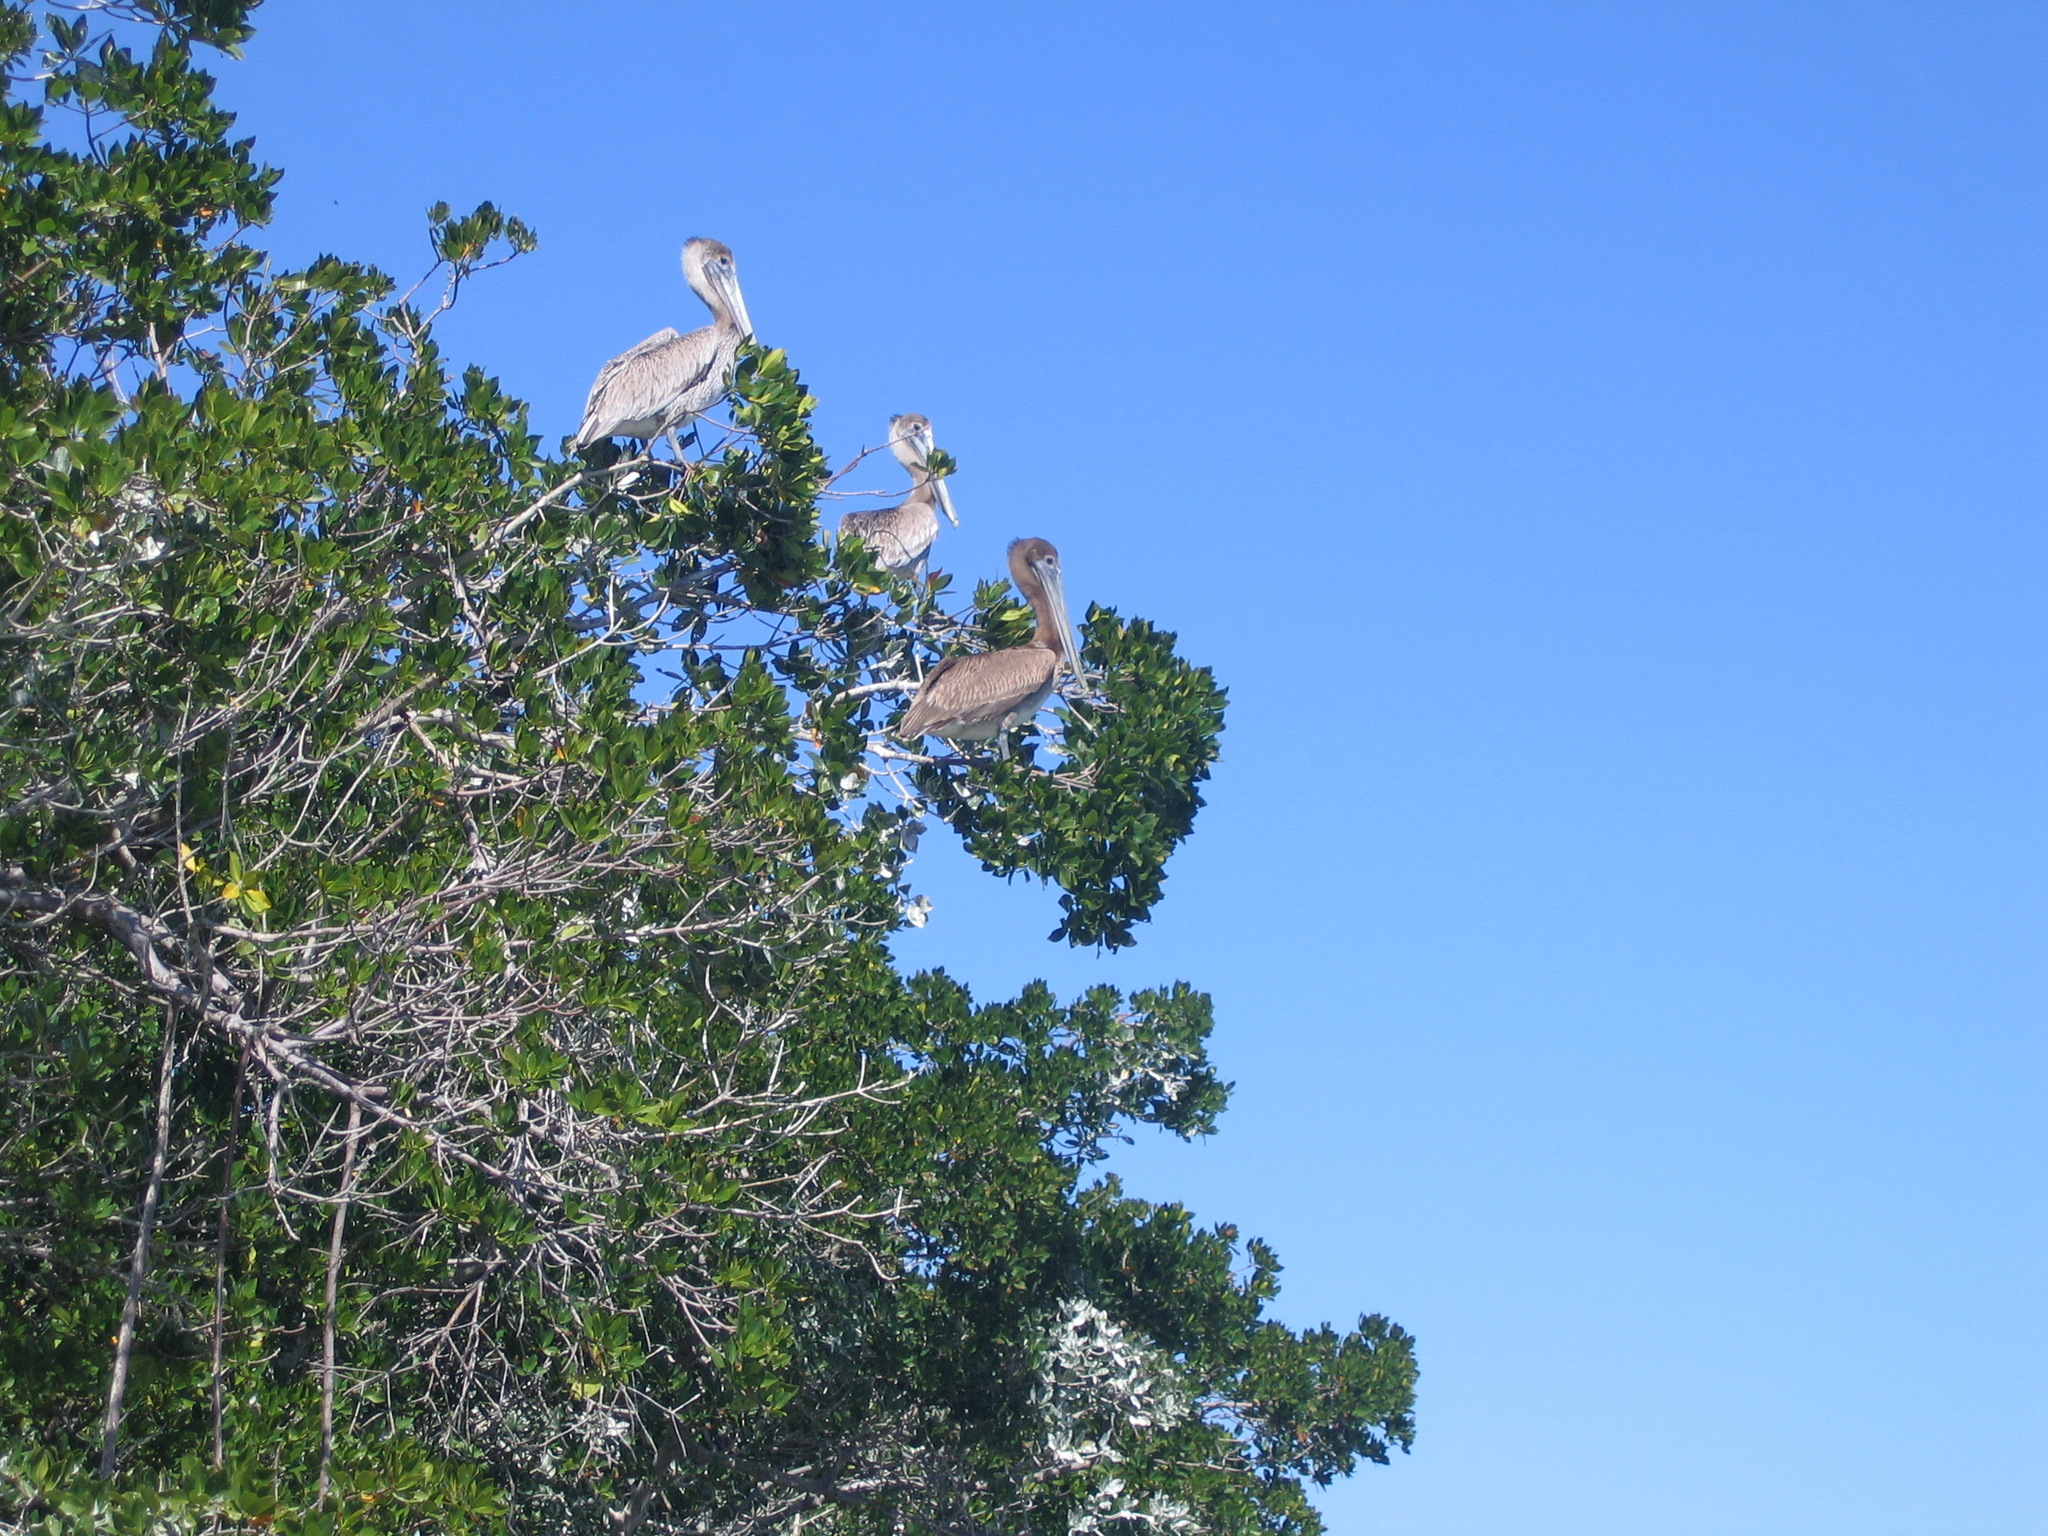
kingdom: Animalia
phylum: Chordata
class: Aves
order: Pelecaniformes
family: Pelecanidae
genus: Pelecanus
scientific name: Pelecanus occidentalis
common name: Brown pelican
